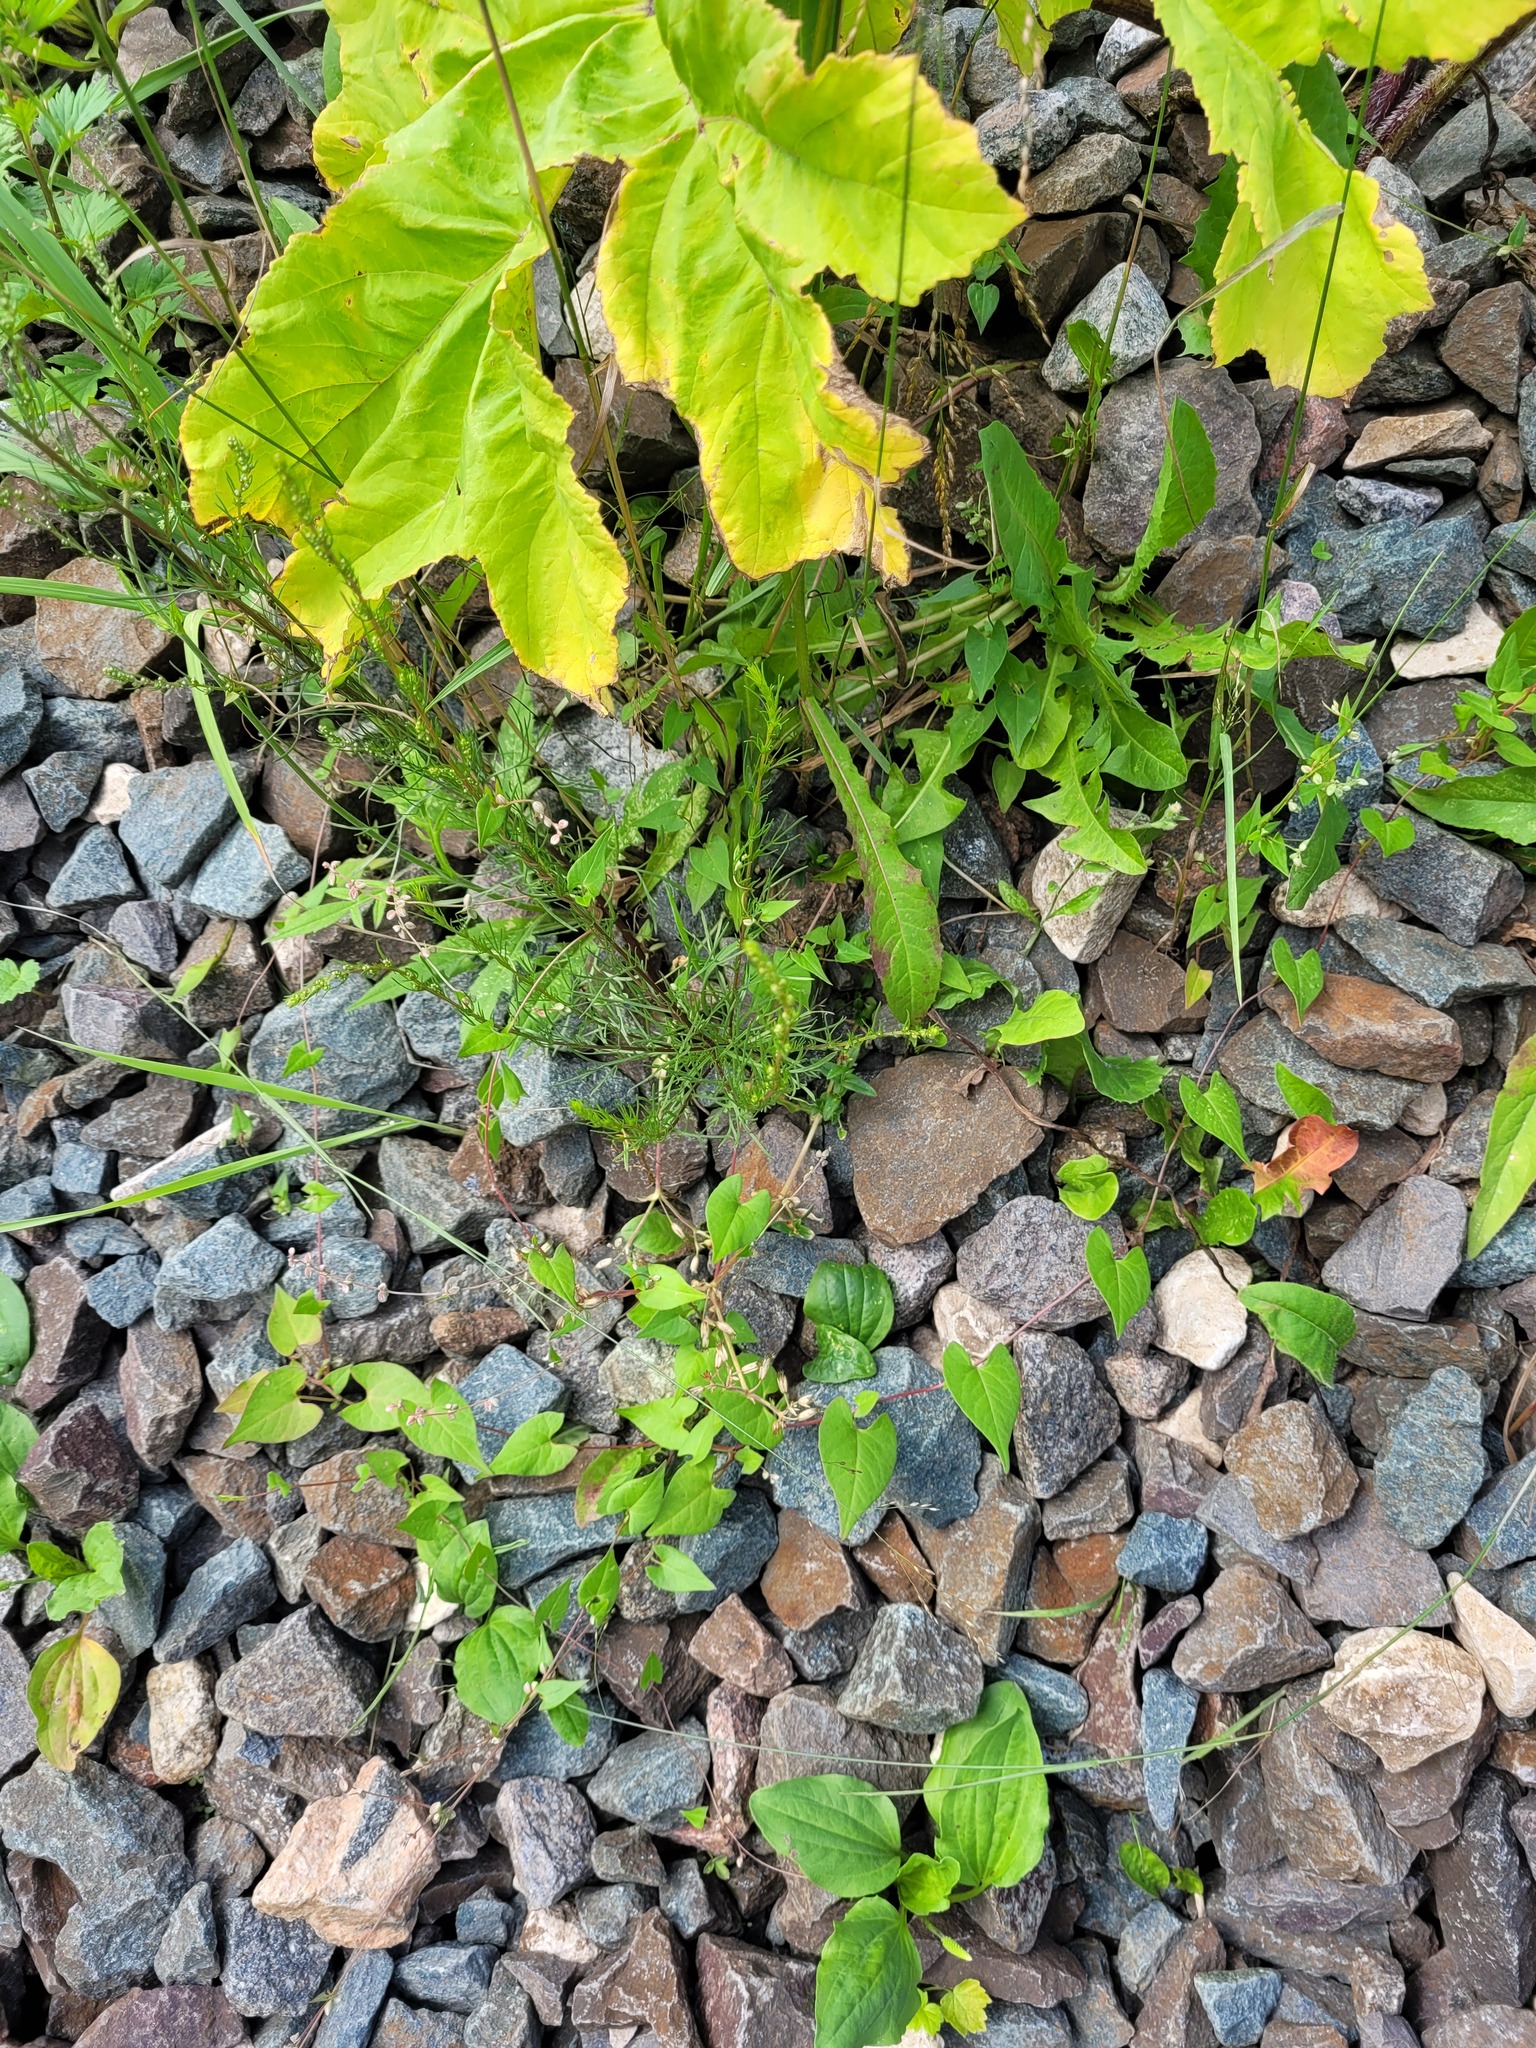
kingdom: Plantae
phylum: Tracheophyta
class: Magnoliopsida
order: Asterales
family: Asteraceae
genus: Artemisia
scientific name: Artemisia campestris
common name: Field wormwood
